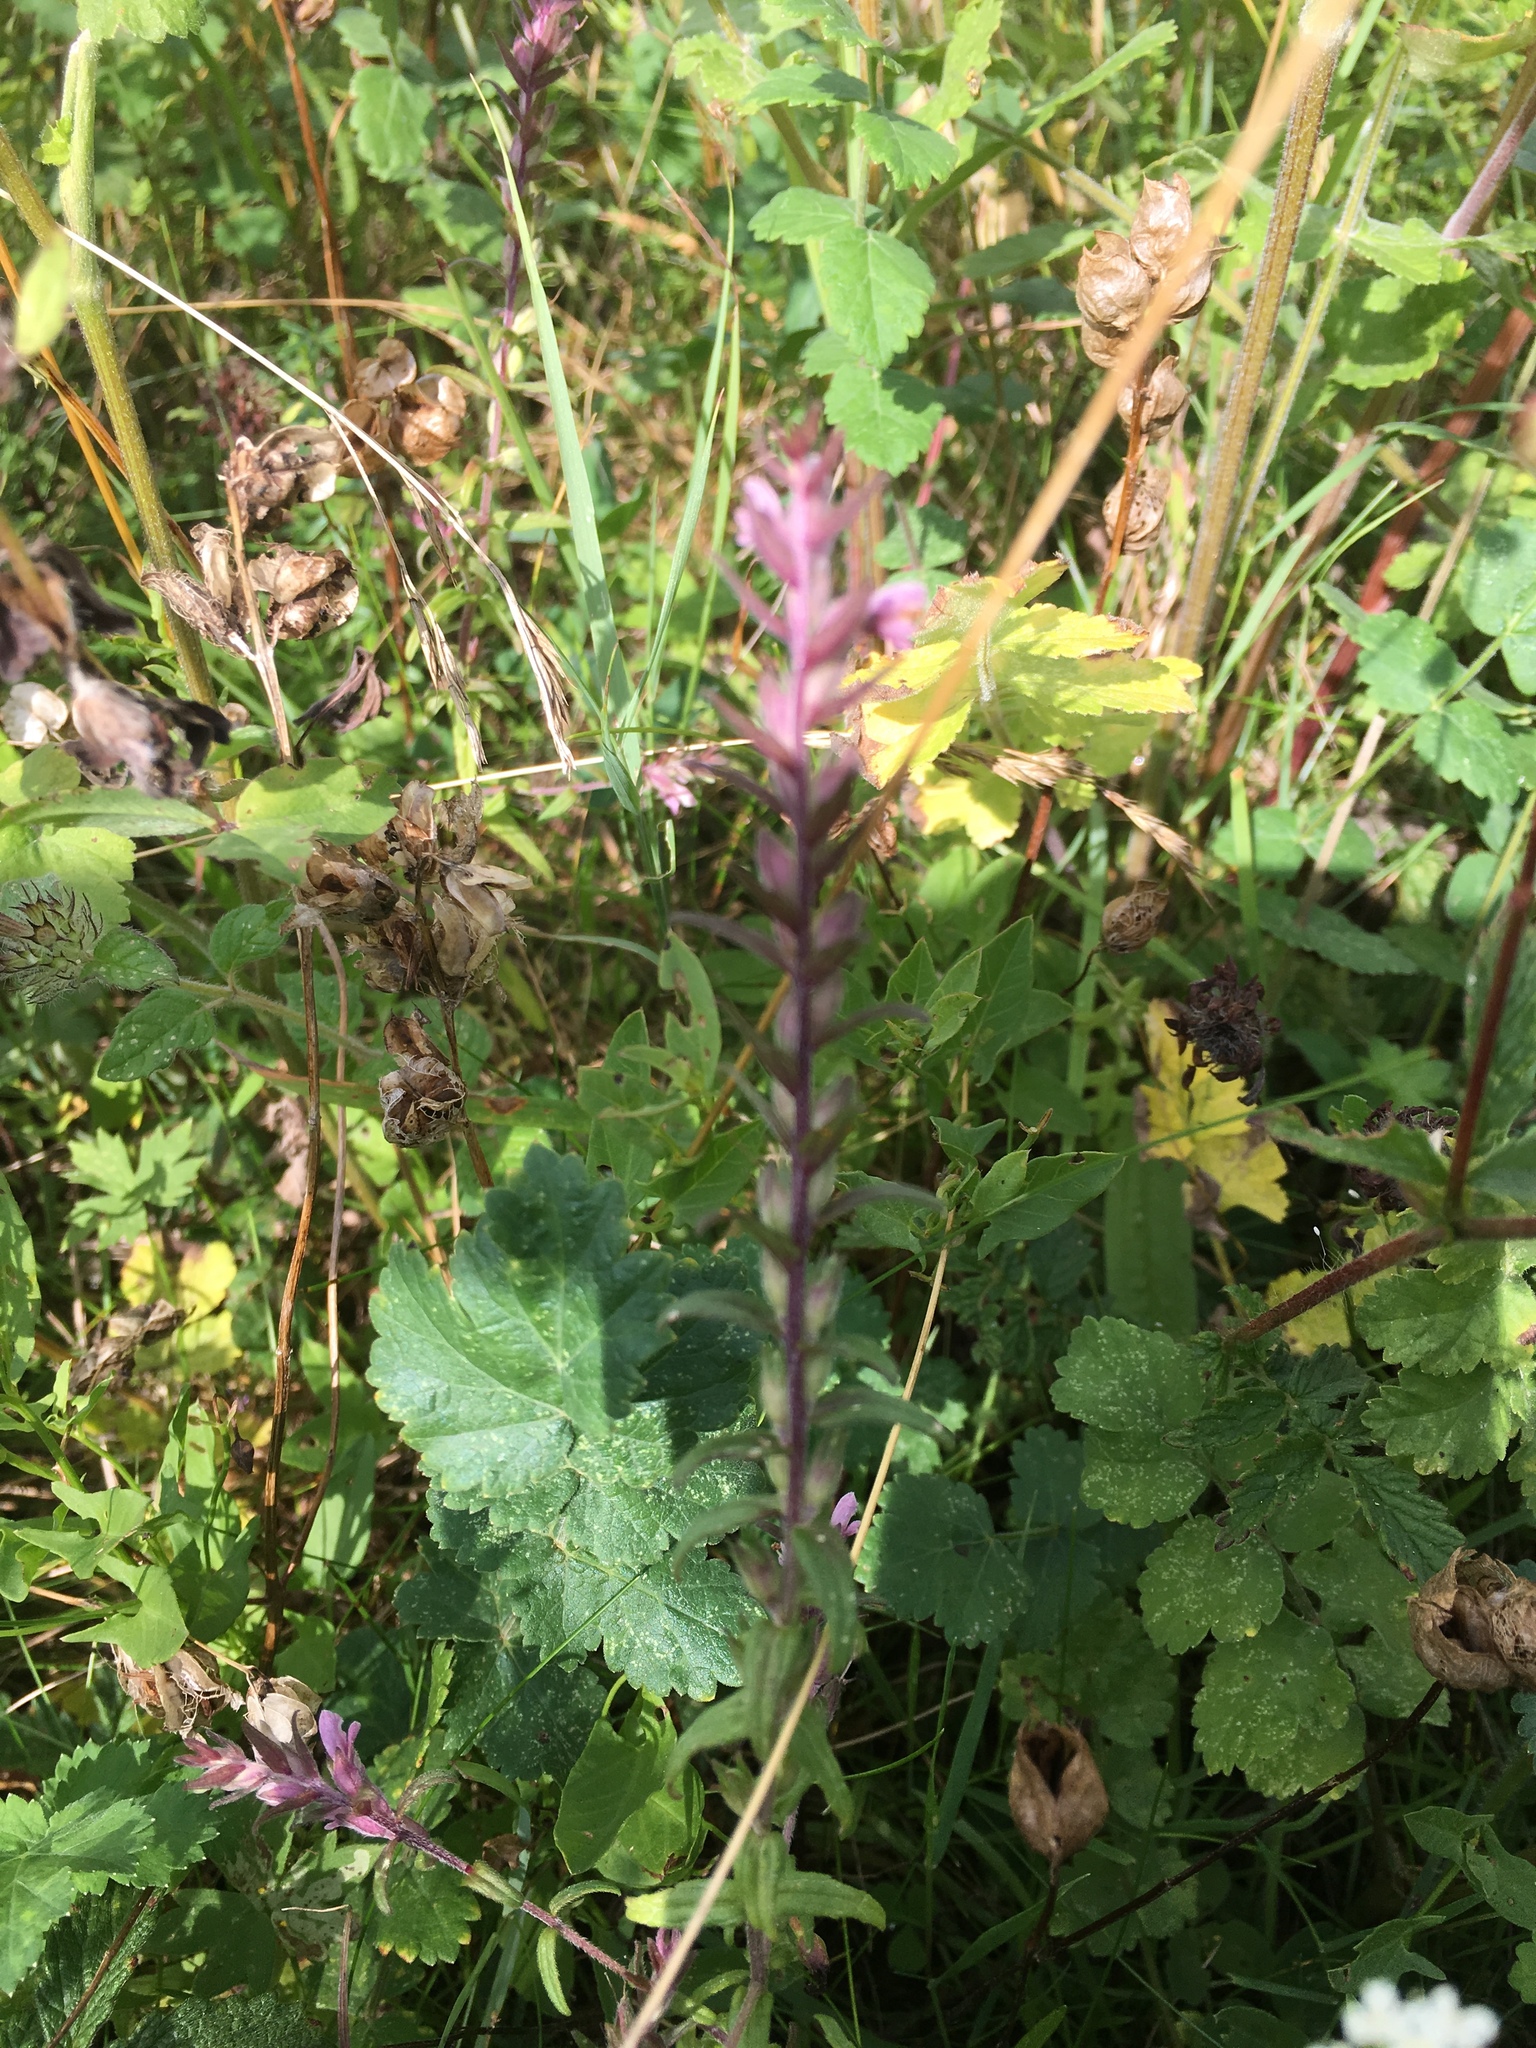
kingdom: Plantae
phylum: Tracheophyta
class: Magnoliopsida
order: Lamiales
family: Orobanchaceae
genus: Odontites
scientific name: Odontites vernus
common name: Red bartsia
